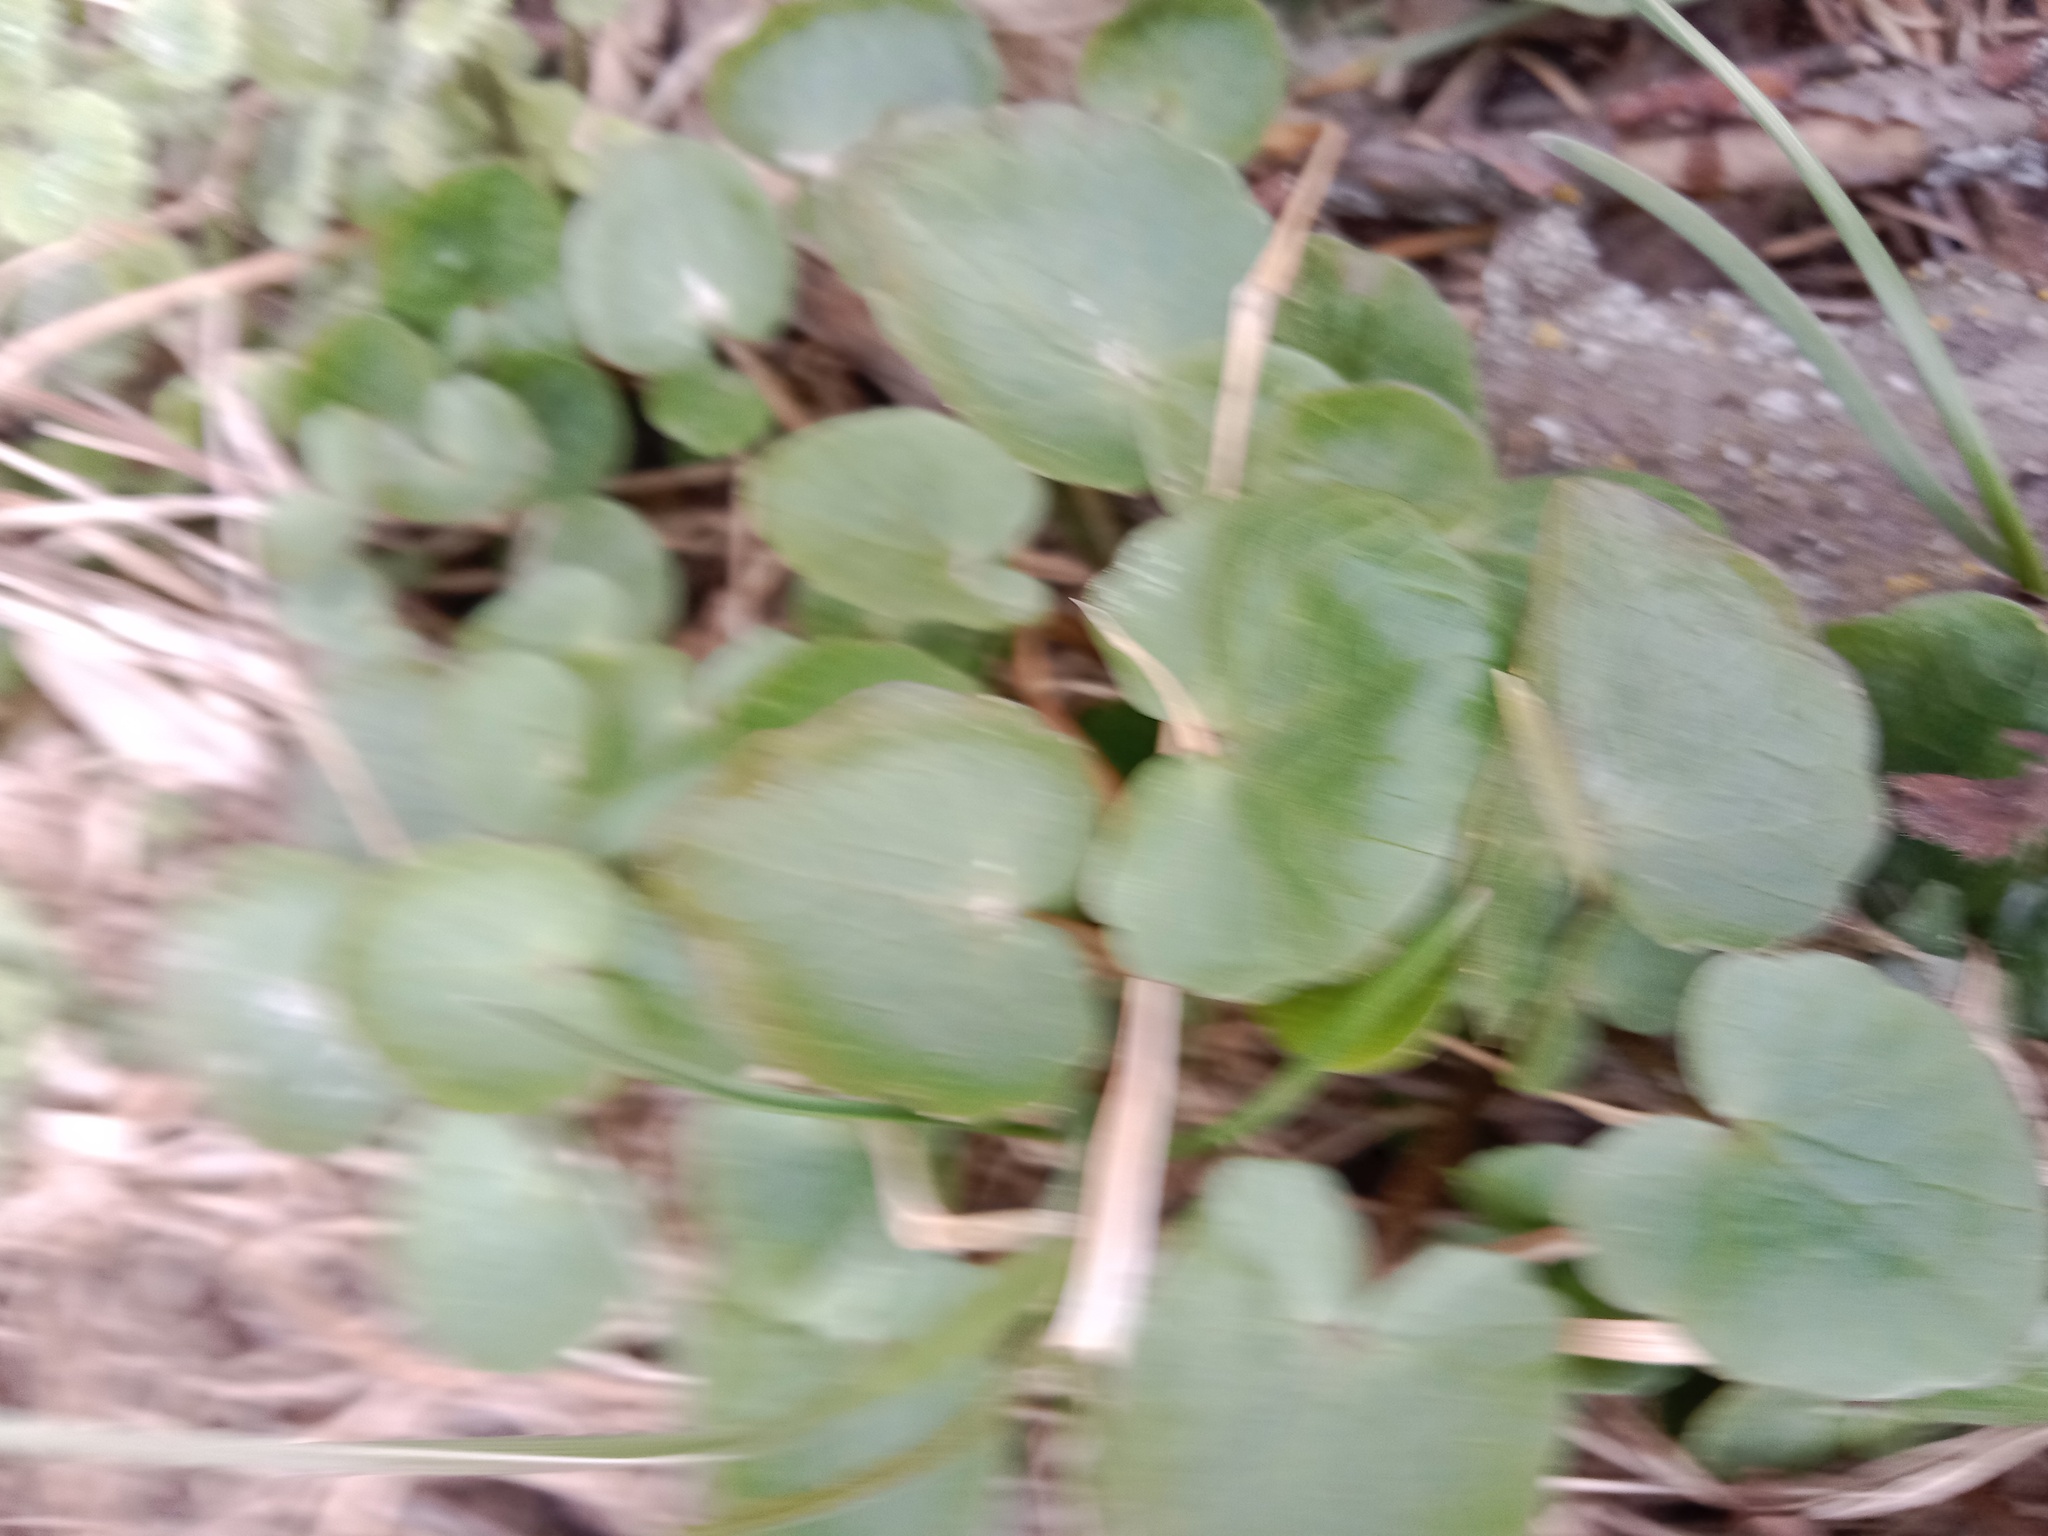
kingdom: Plantae
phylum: Tracheophyta
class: Magnoliopsida
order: Ranunculales
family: Ranunculaceae
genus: Ficaria
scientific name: Ficaria verna
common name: Lesser celandine
